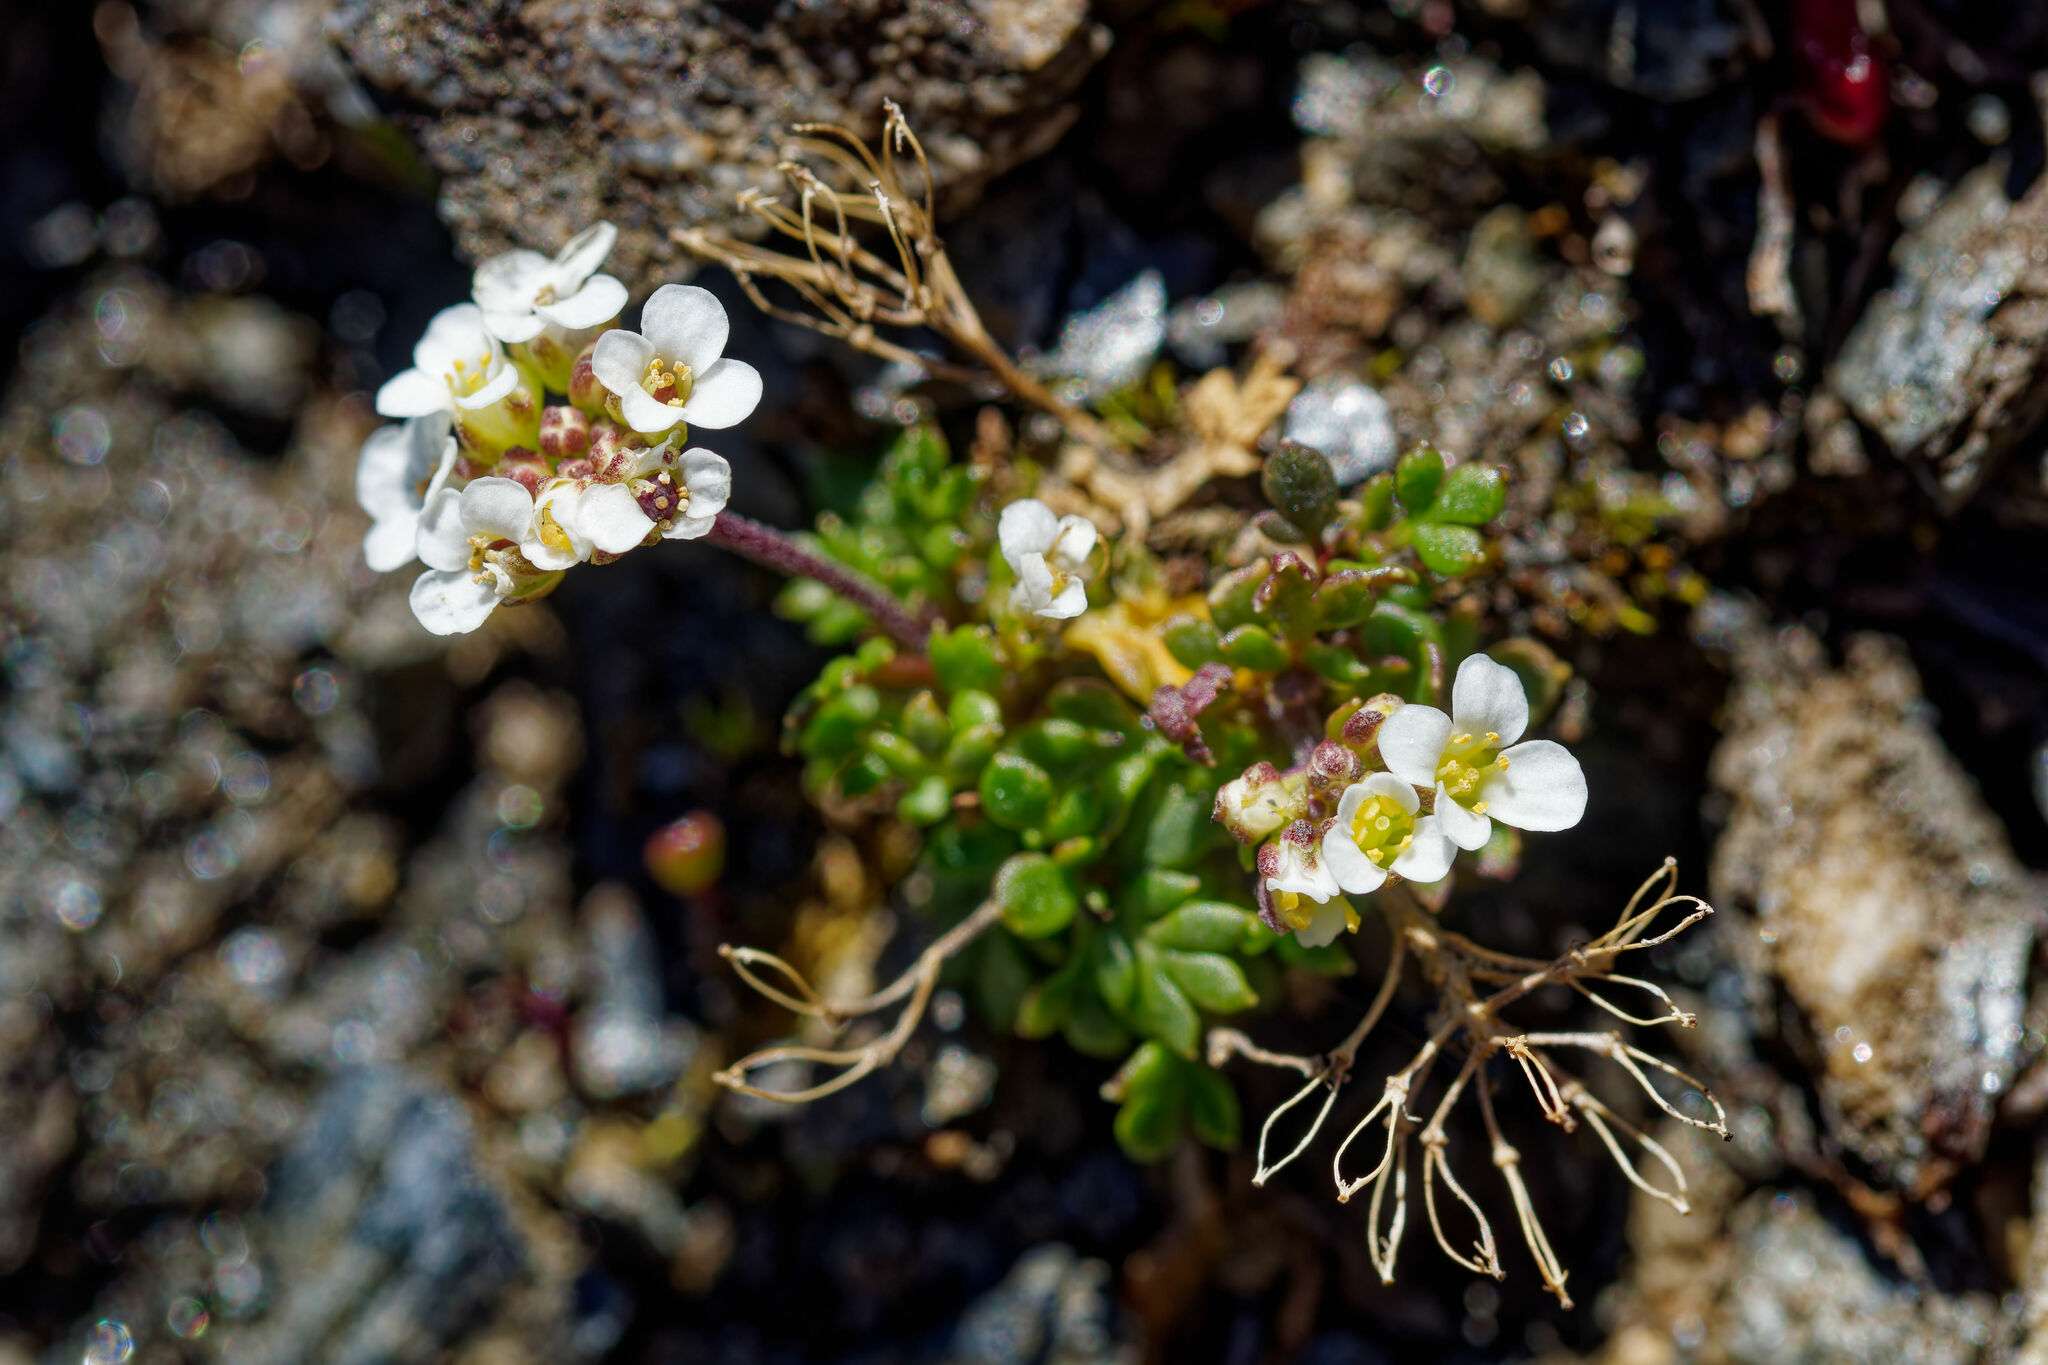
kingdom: Plantae
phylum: Tracheophyta
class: Magnoliopsida
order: Brassicales
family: Brassicaceae
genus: Hornungia
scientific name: Hornungia alpina
